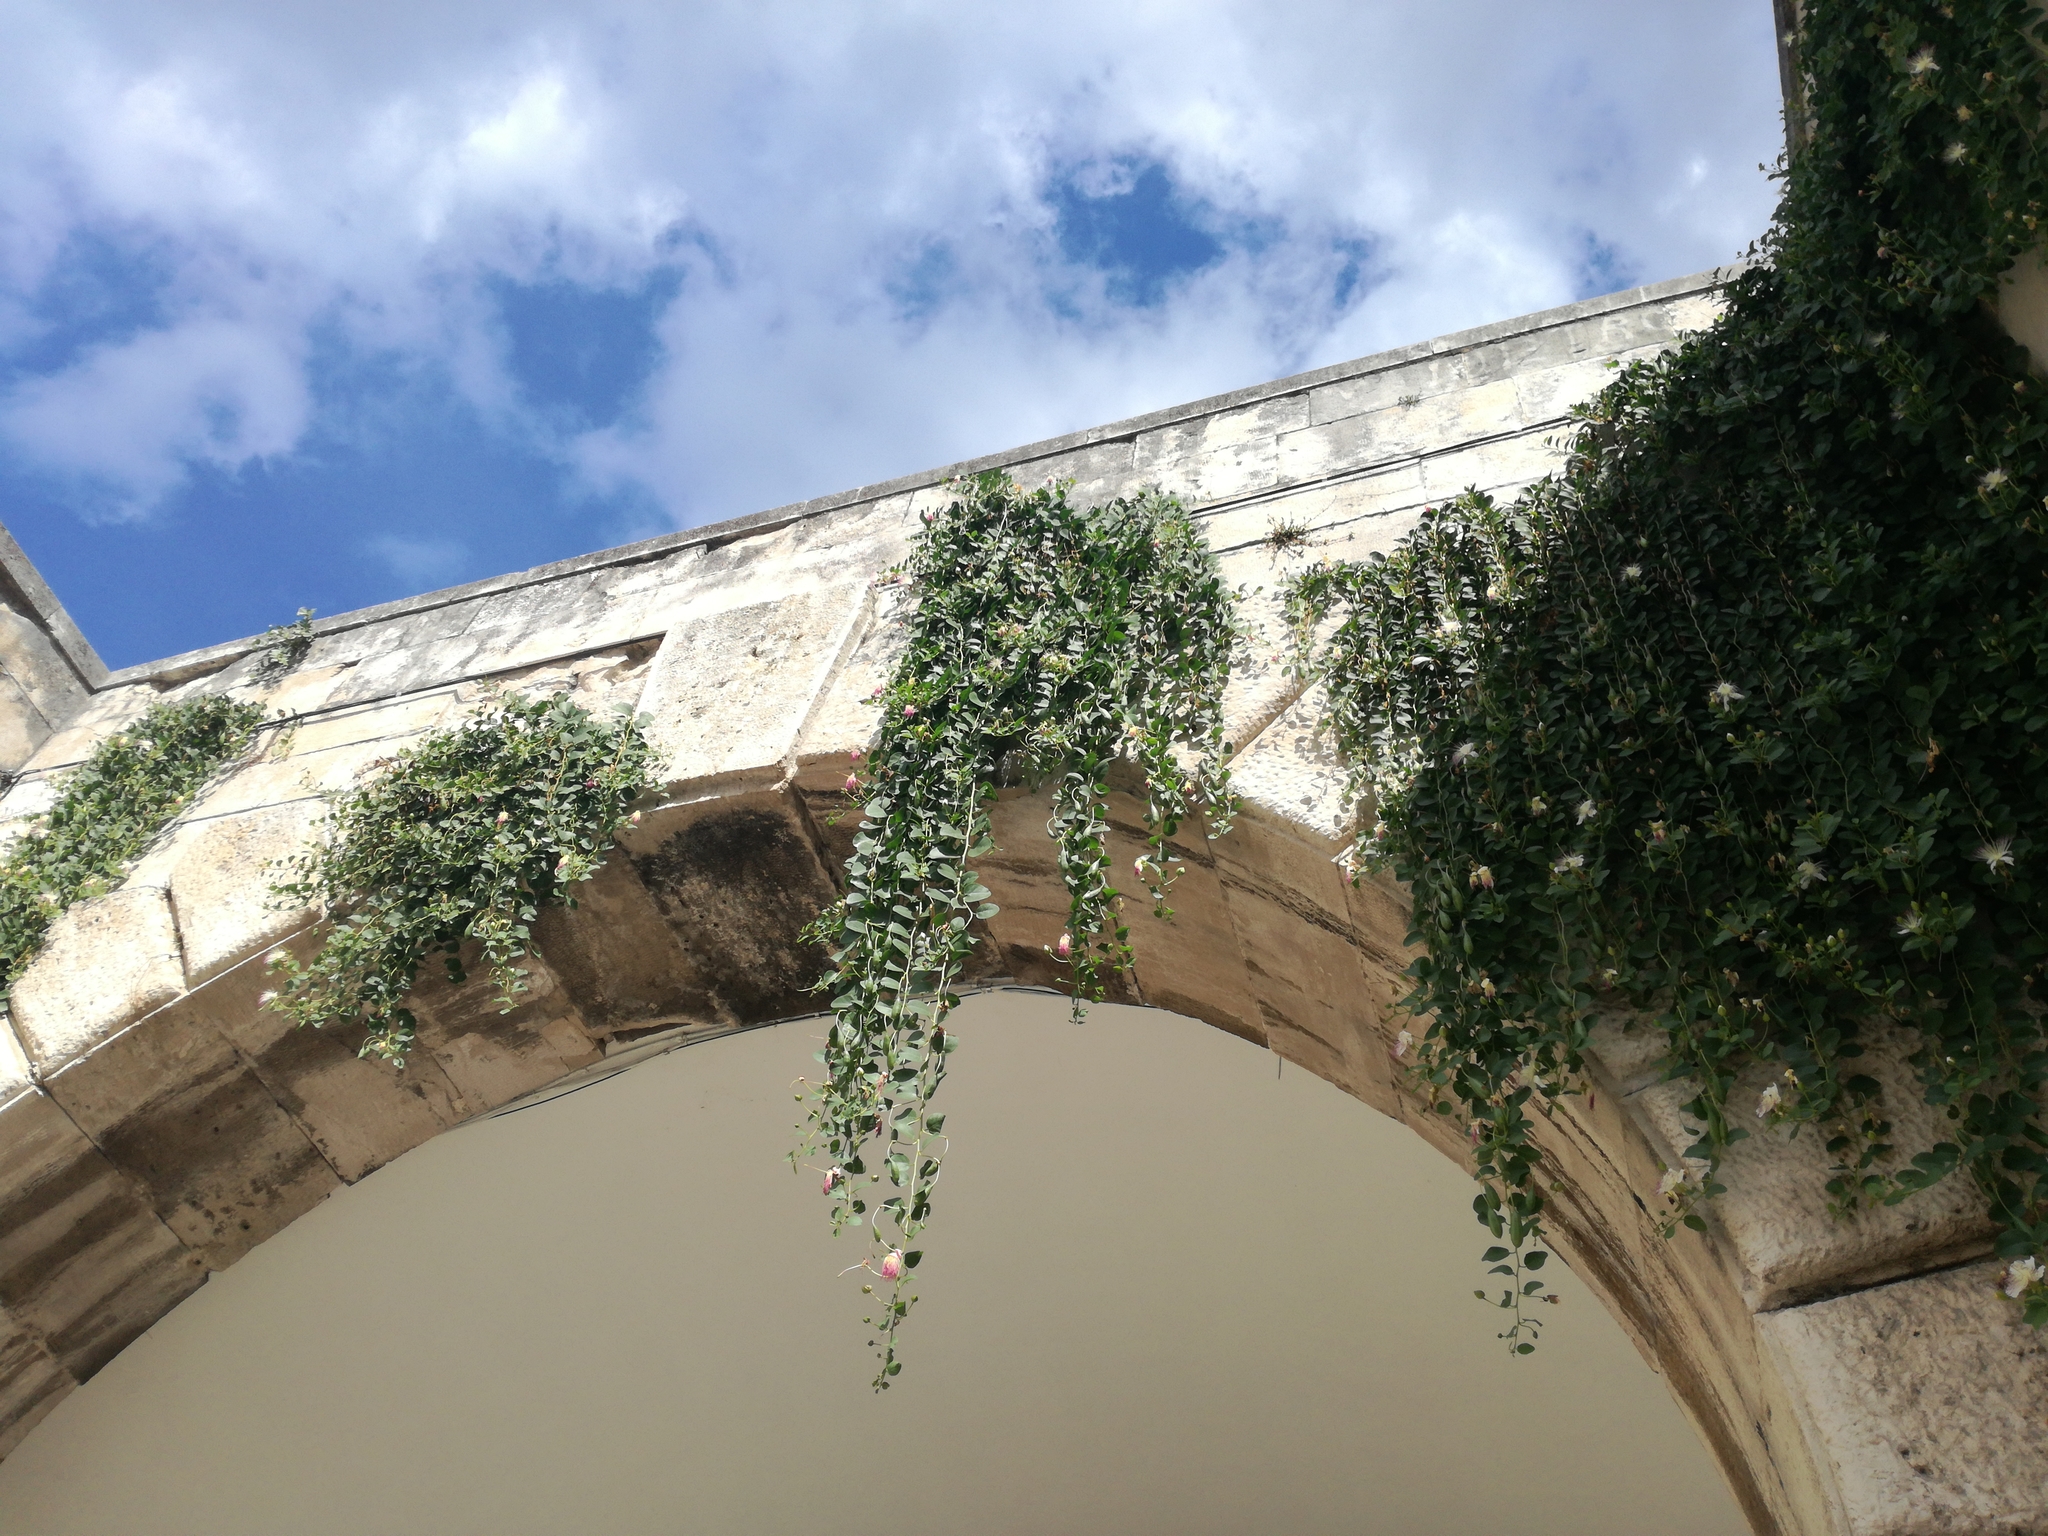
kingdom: Plantae
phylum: Tracheophyta
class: Magnoliopsida
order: Brassicales
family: Capparaceae
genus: Capparis
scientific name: Capparis spinosa
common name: Caper
